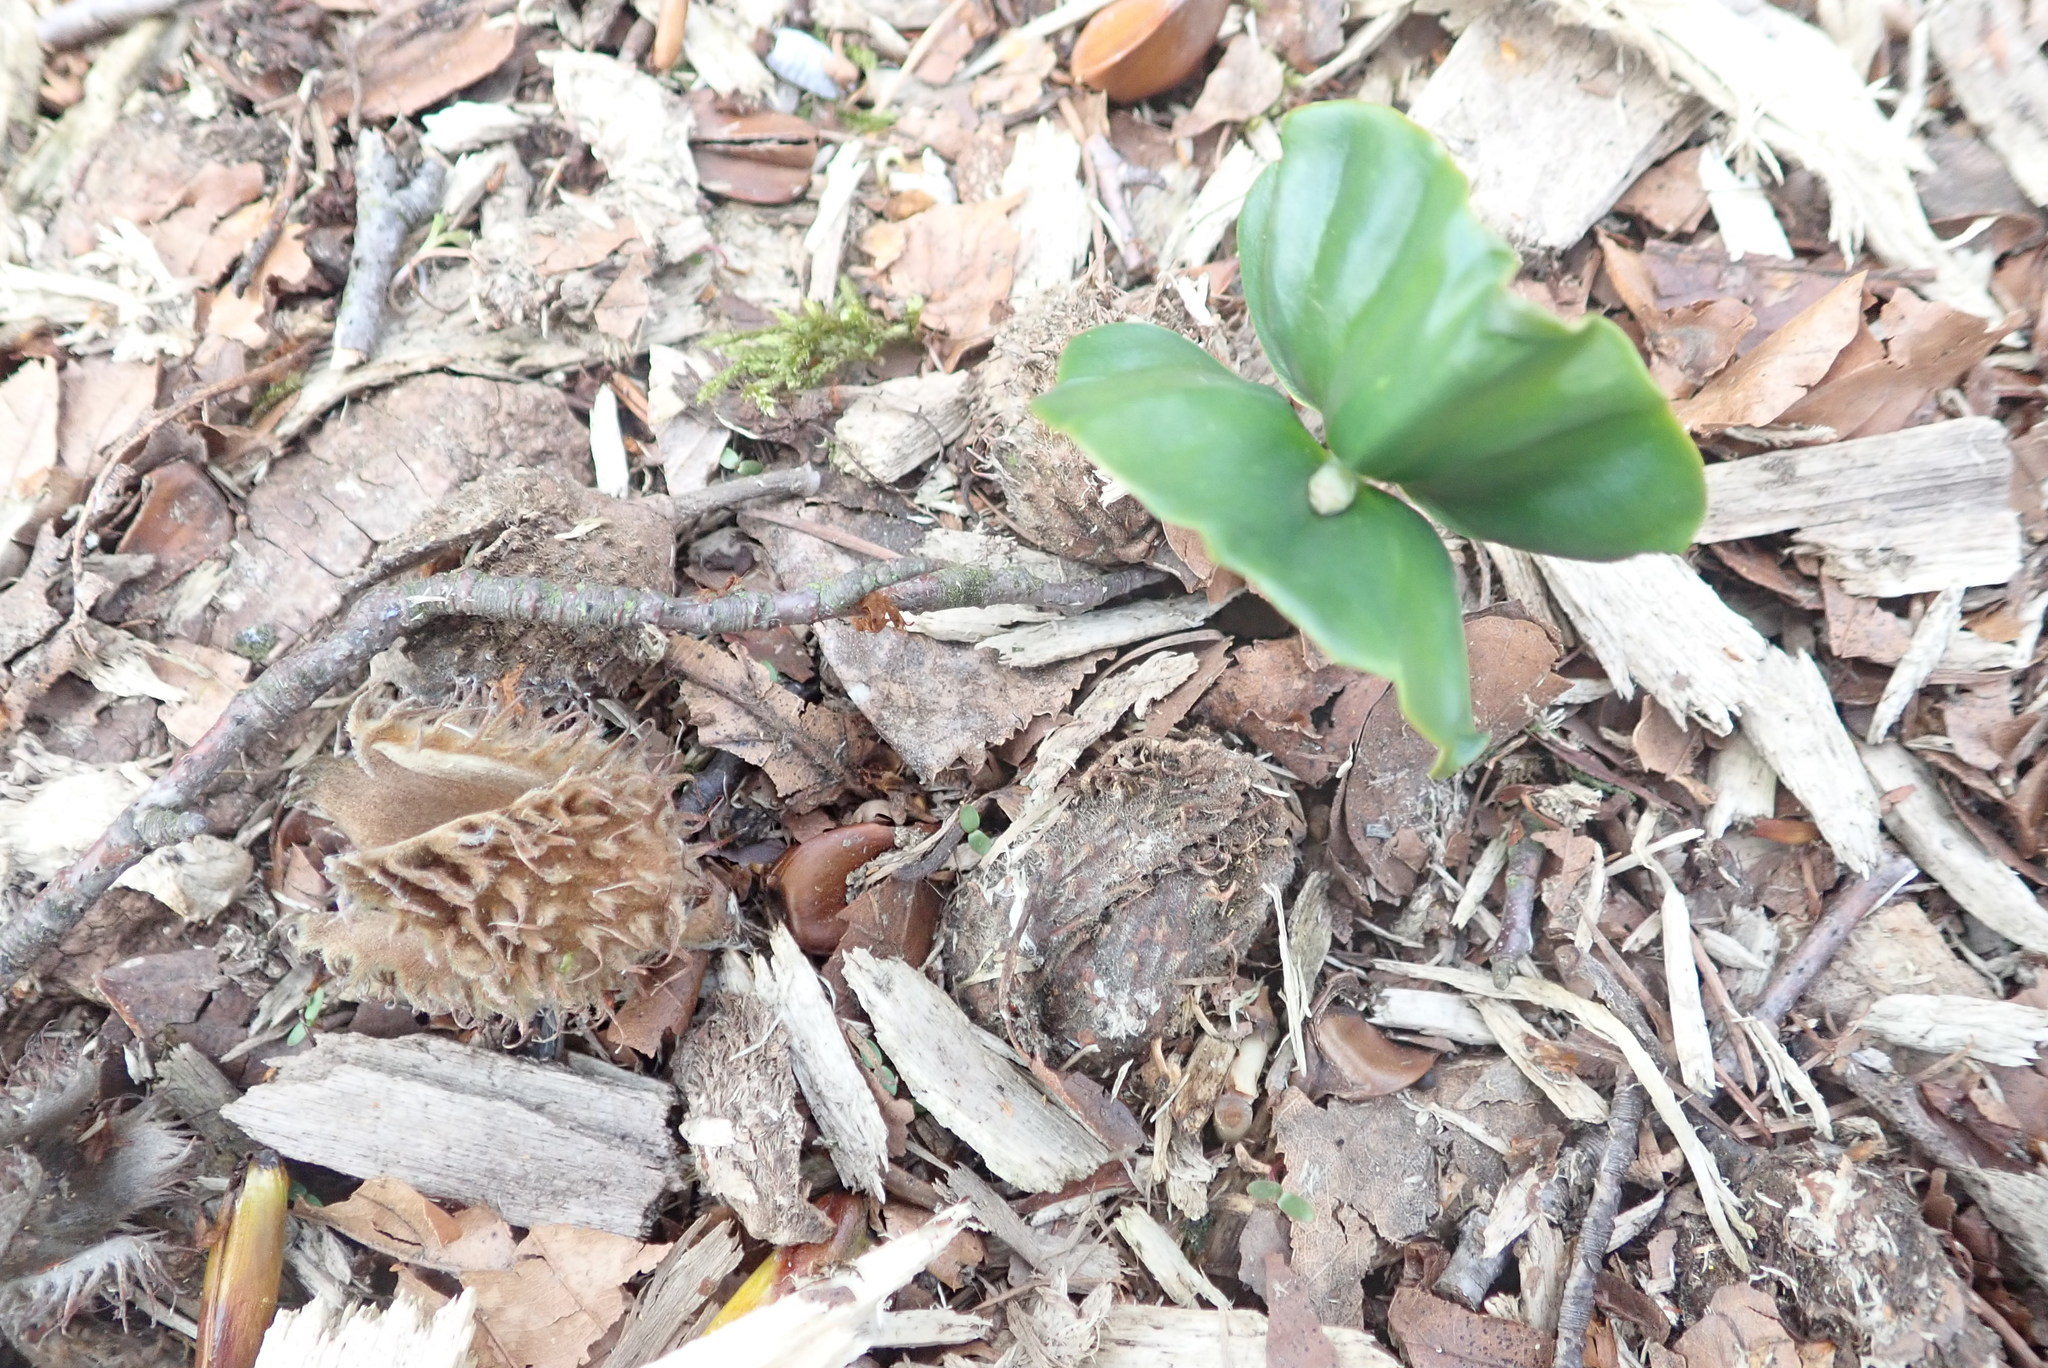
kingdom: Plantae
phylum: Tracheophyta
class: Magnoliopsida
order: Fagales
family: Fagaceae
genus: Fagus
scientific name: Fagus sylvatica
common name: Beech
